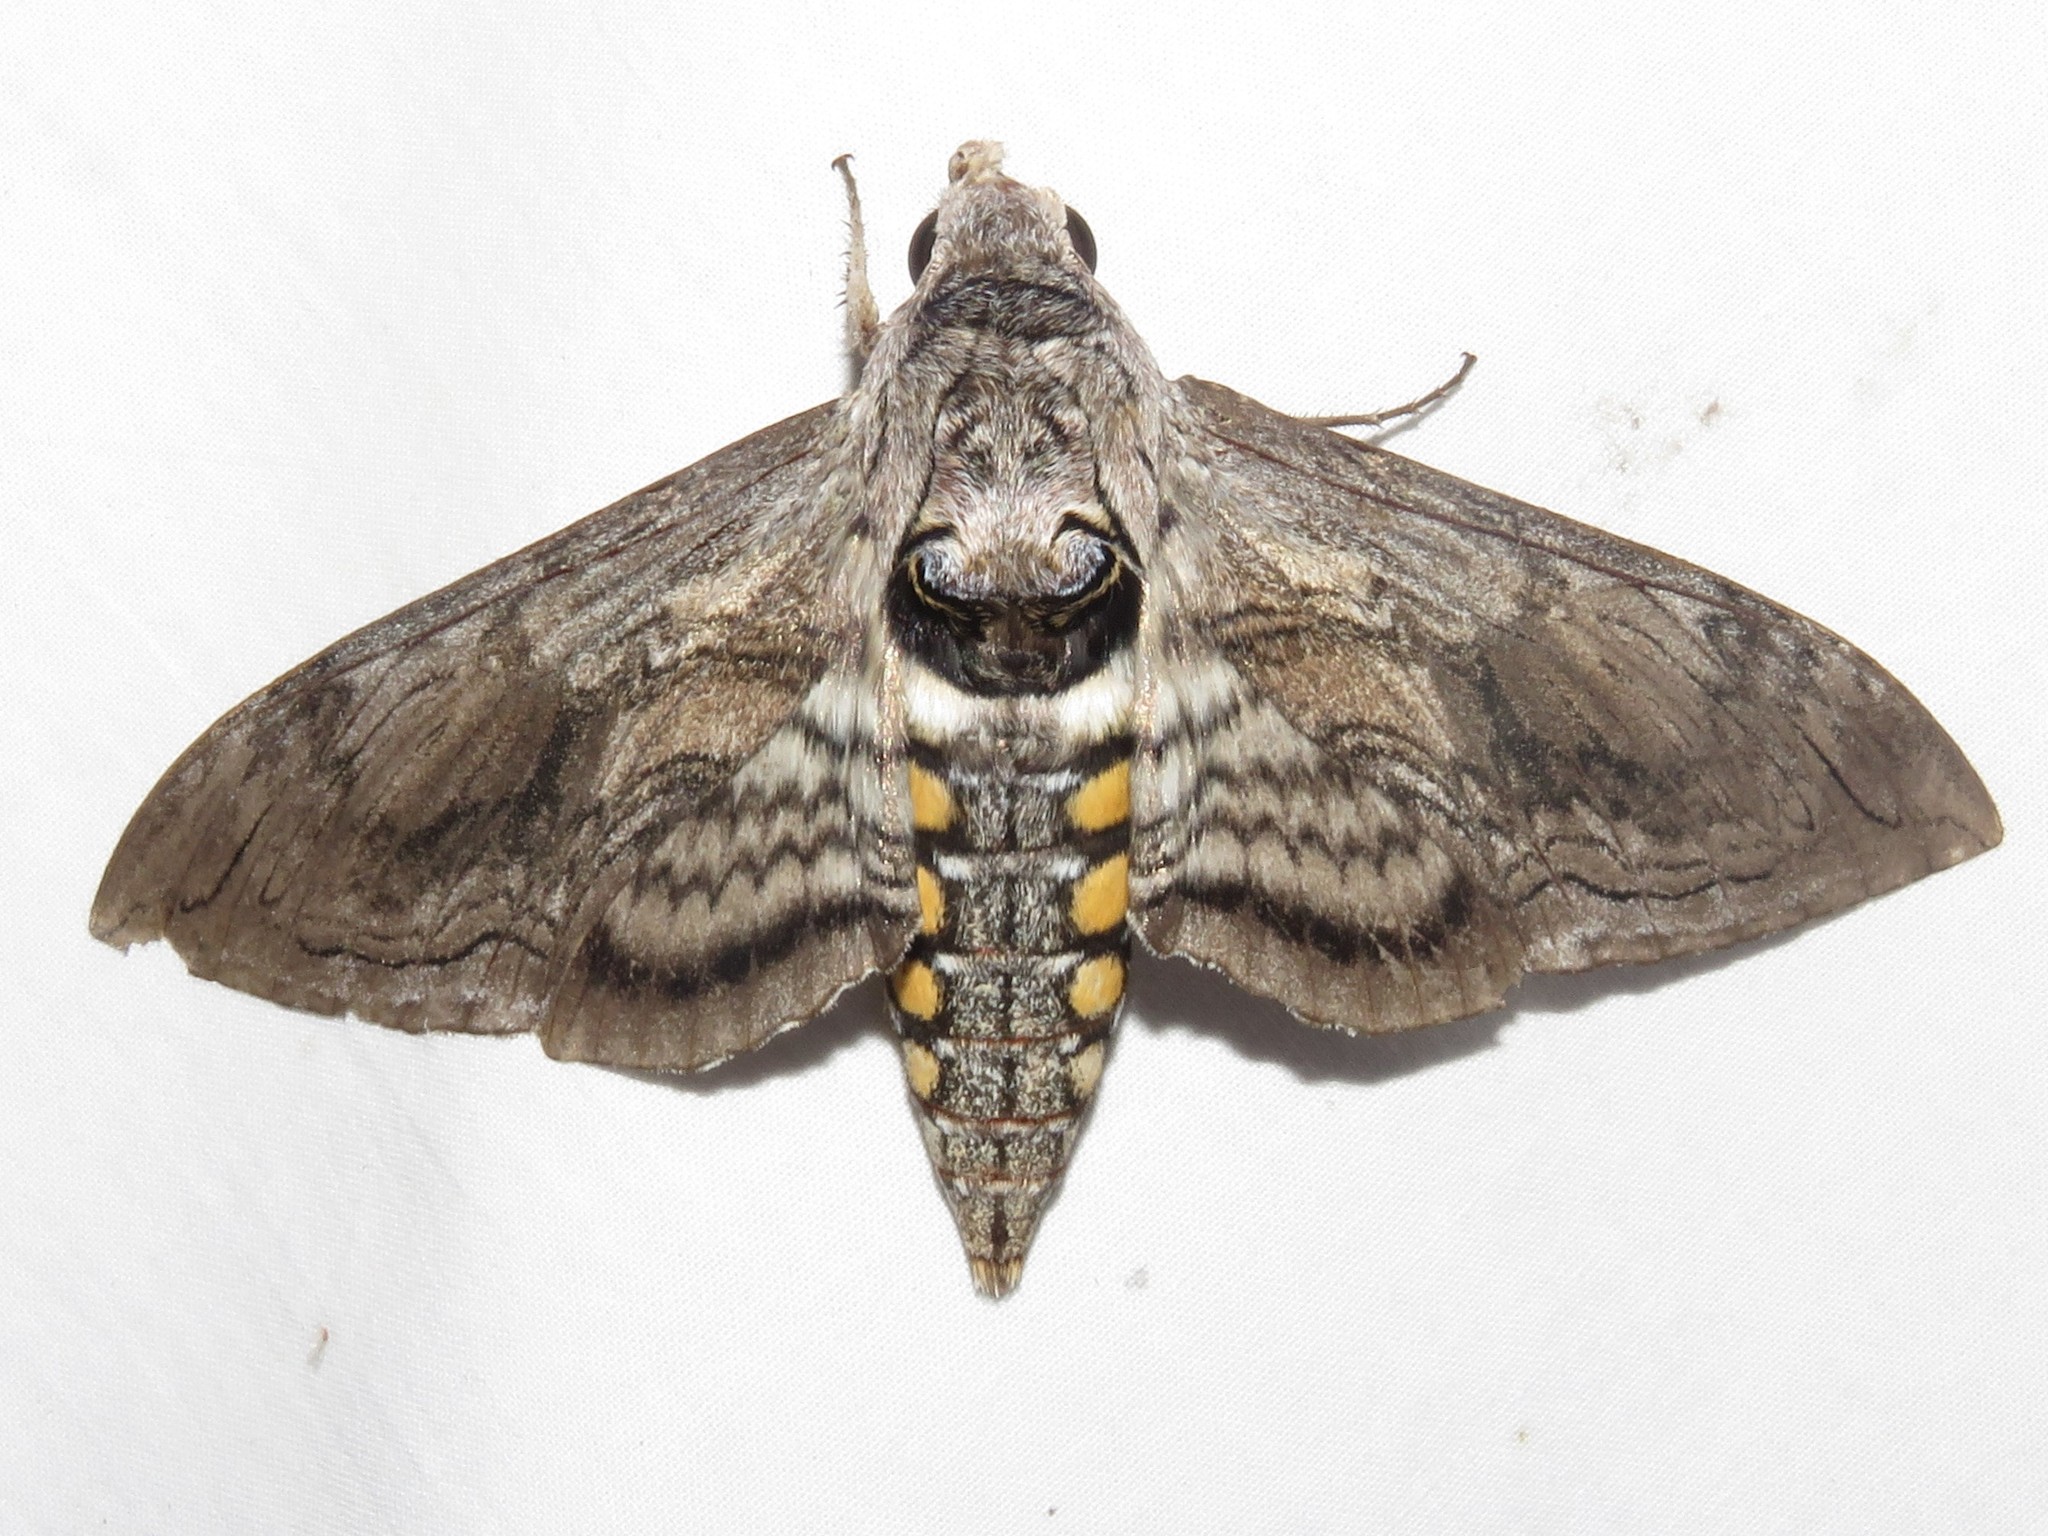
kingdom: Animalia
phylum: Arthropoda
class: Insecta
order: Lepidoptera
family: Sphingidae
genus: Manduca
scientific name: Manduca quinquemaculatus
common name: Five-spotted hawk-moth
